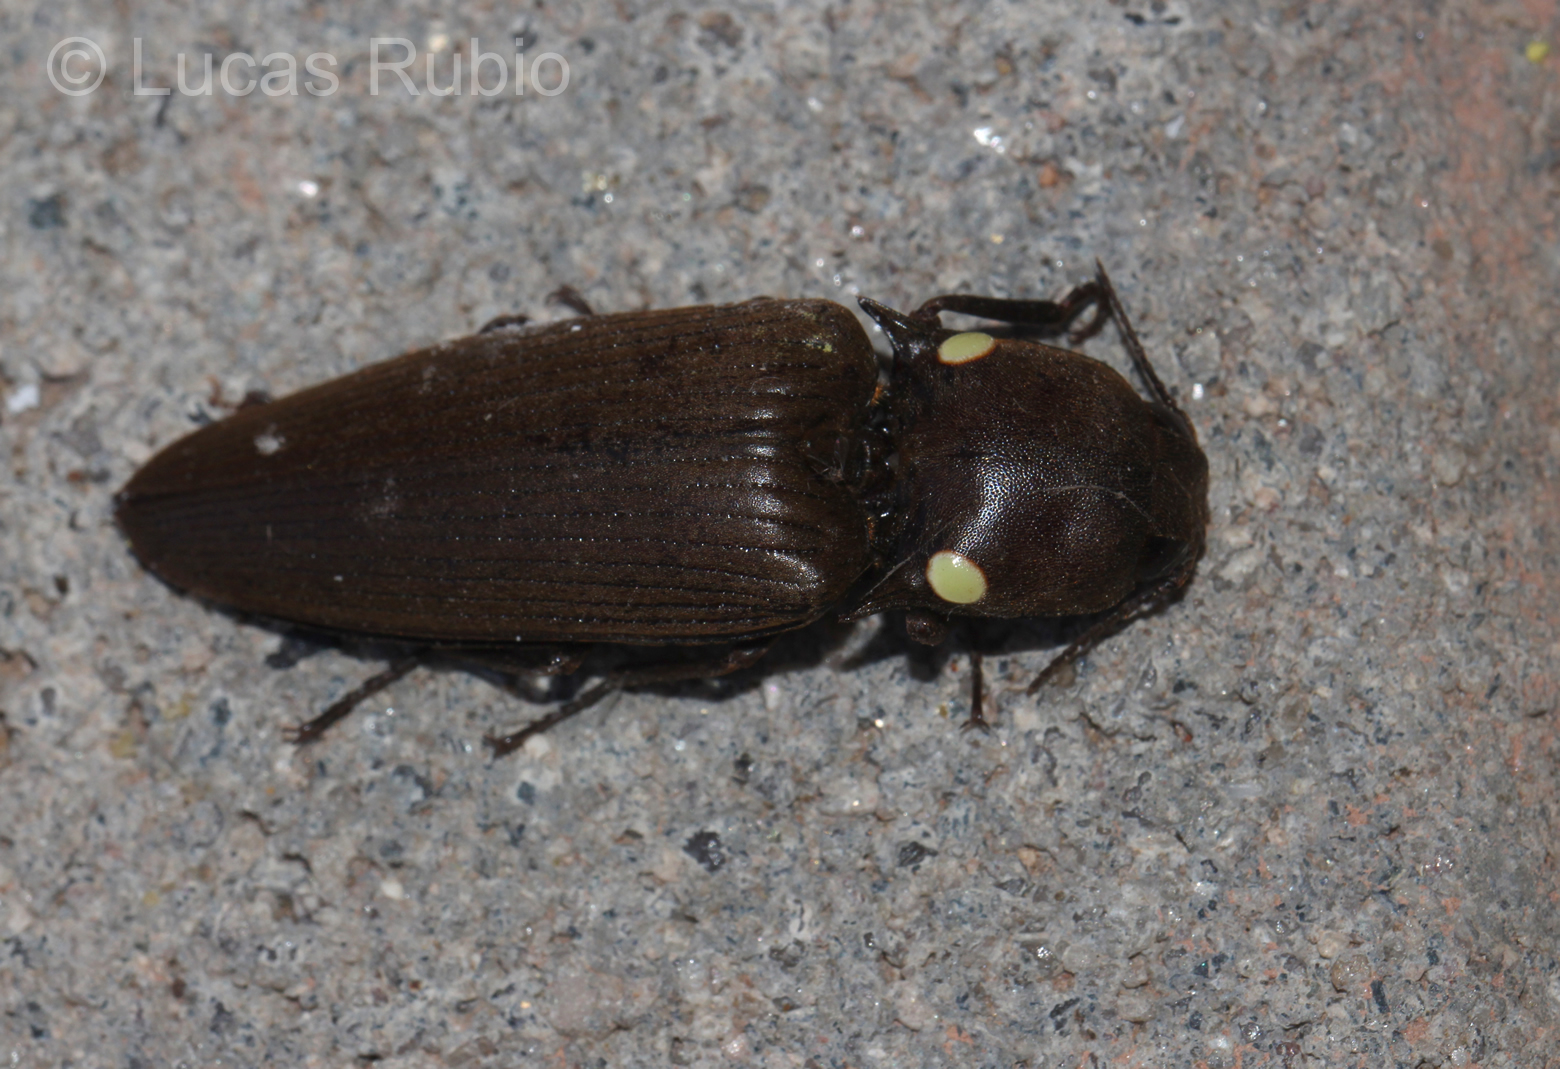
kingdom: Animalia
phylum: Arthropoda
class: Insecta
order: Coleoptera
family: Elateridae
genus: Pyrophorus
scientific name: Pyrophorus
